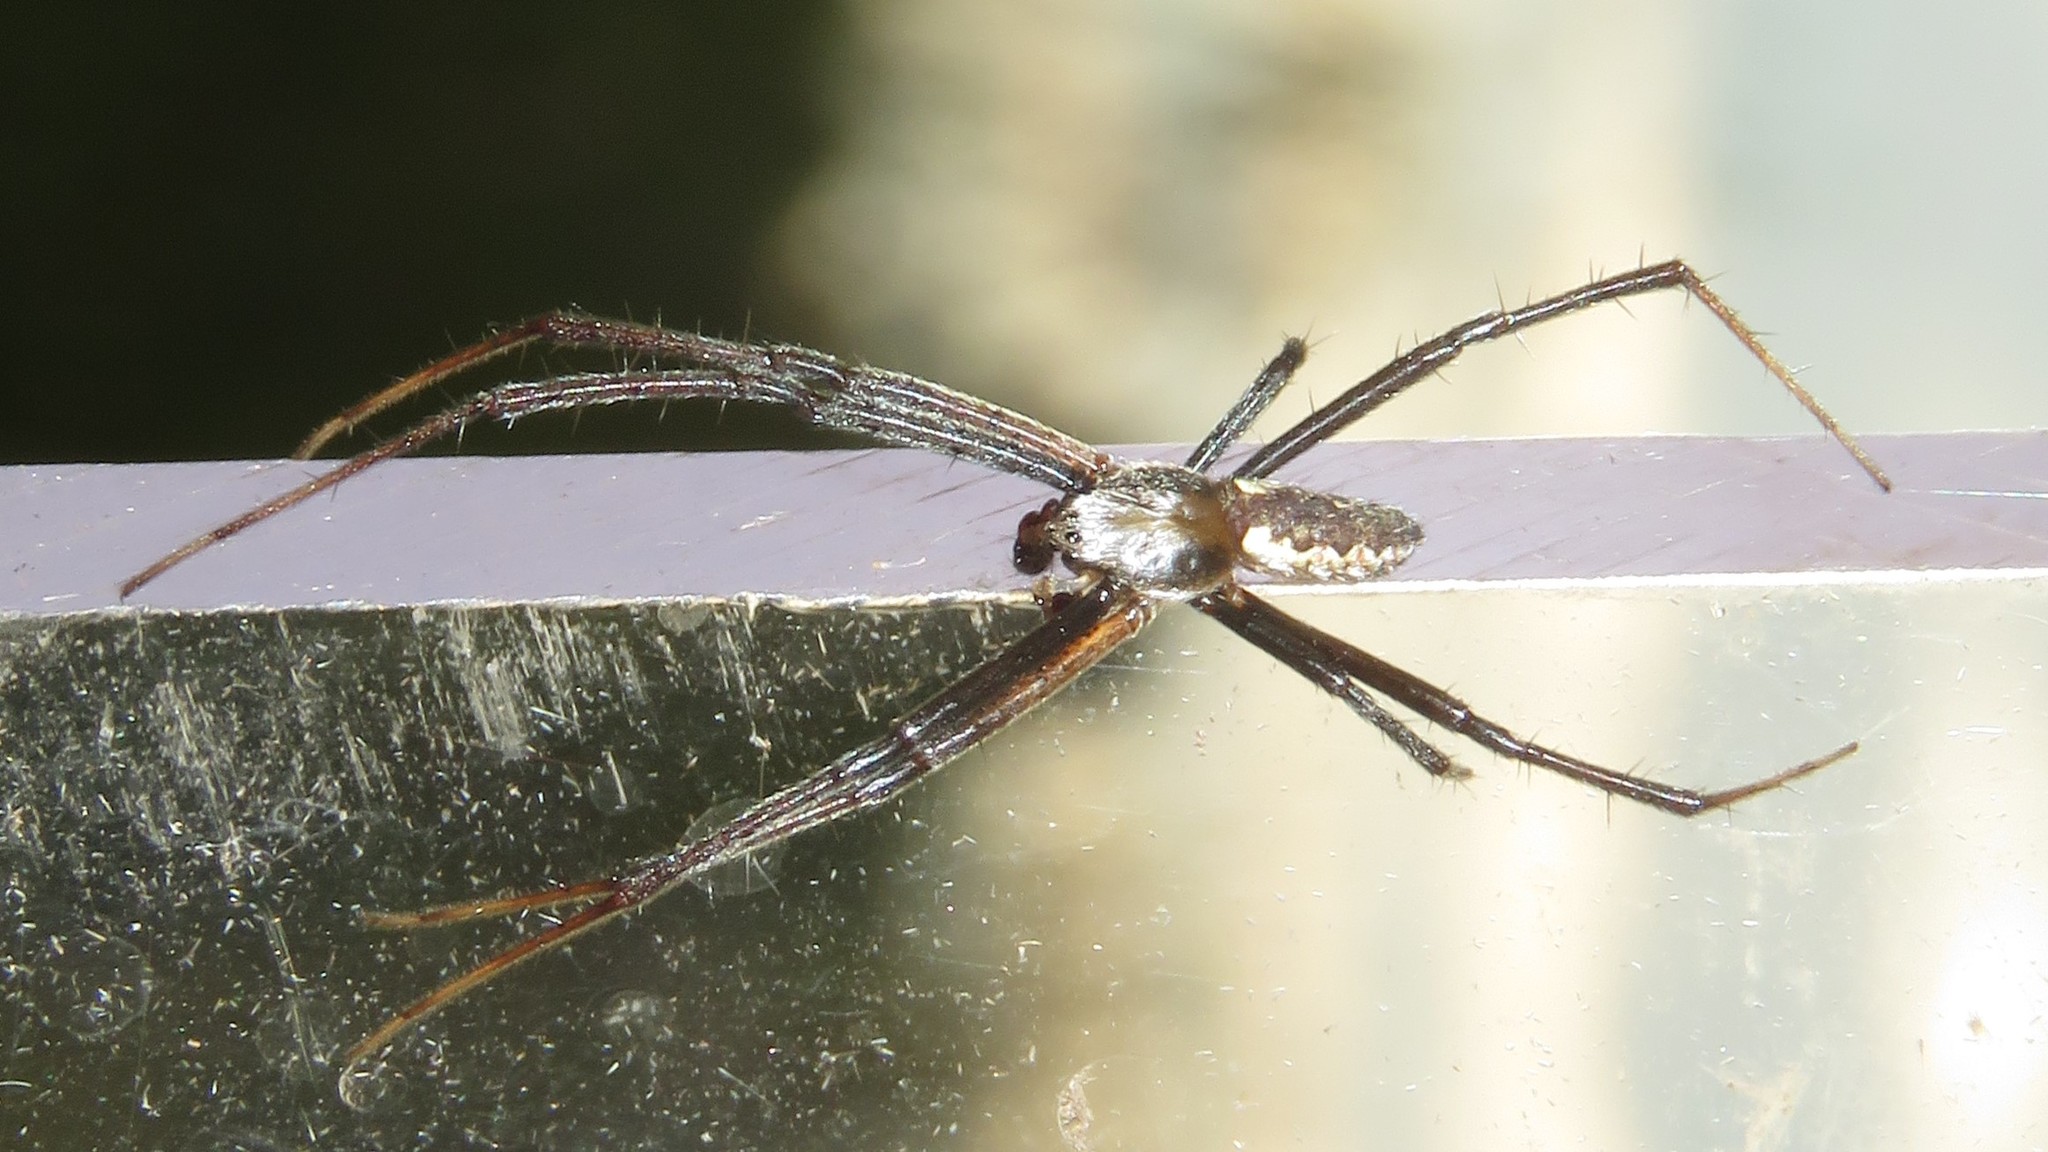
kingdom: Animalia
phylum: Arthropoda
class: Arachnida
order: Araneae
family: Araneidae
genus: Argiope
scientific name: Argiope aurantia
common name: Orb weavers
